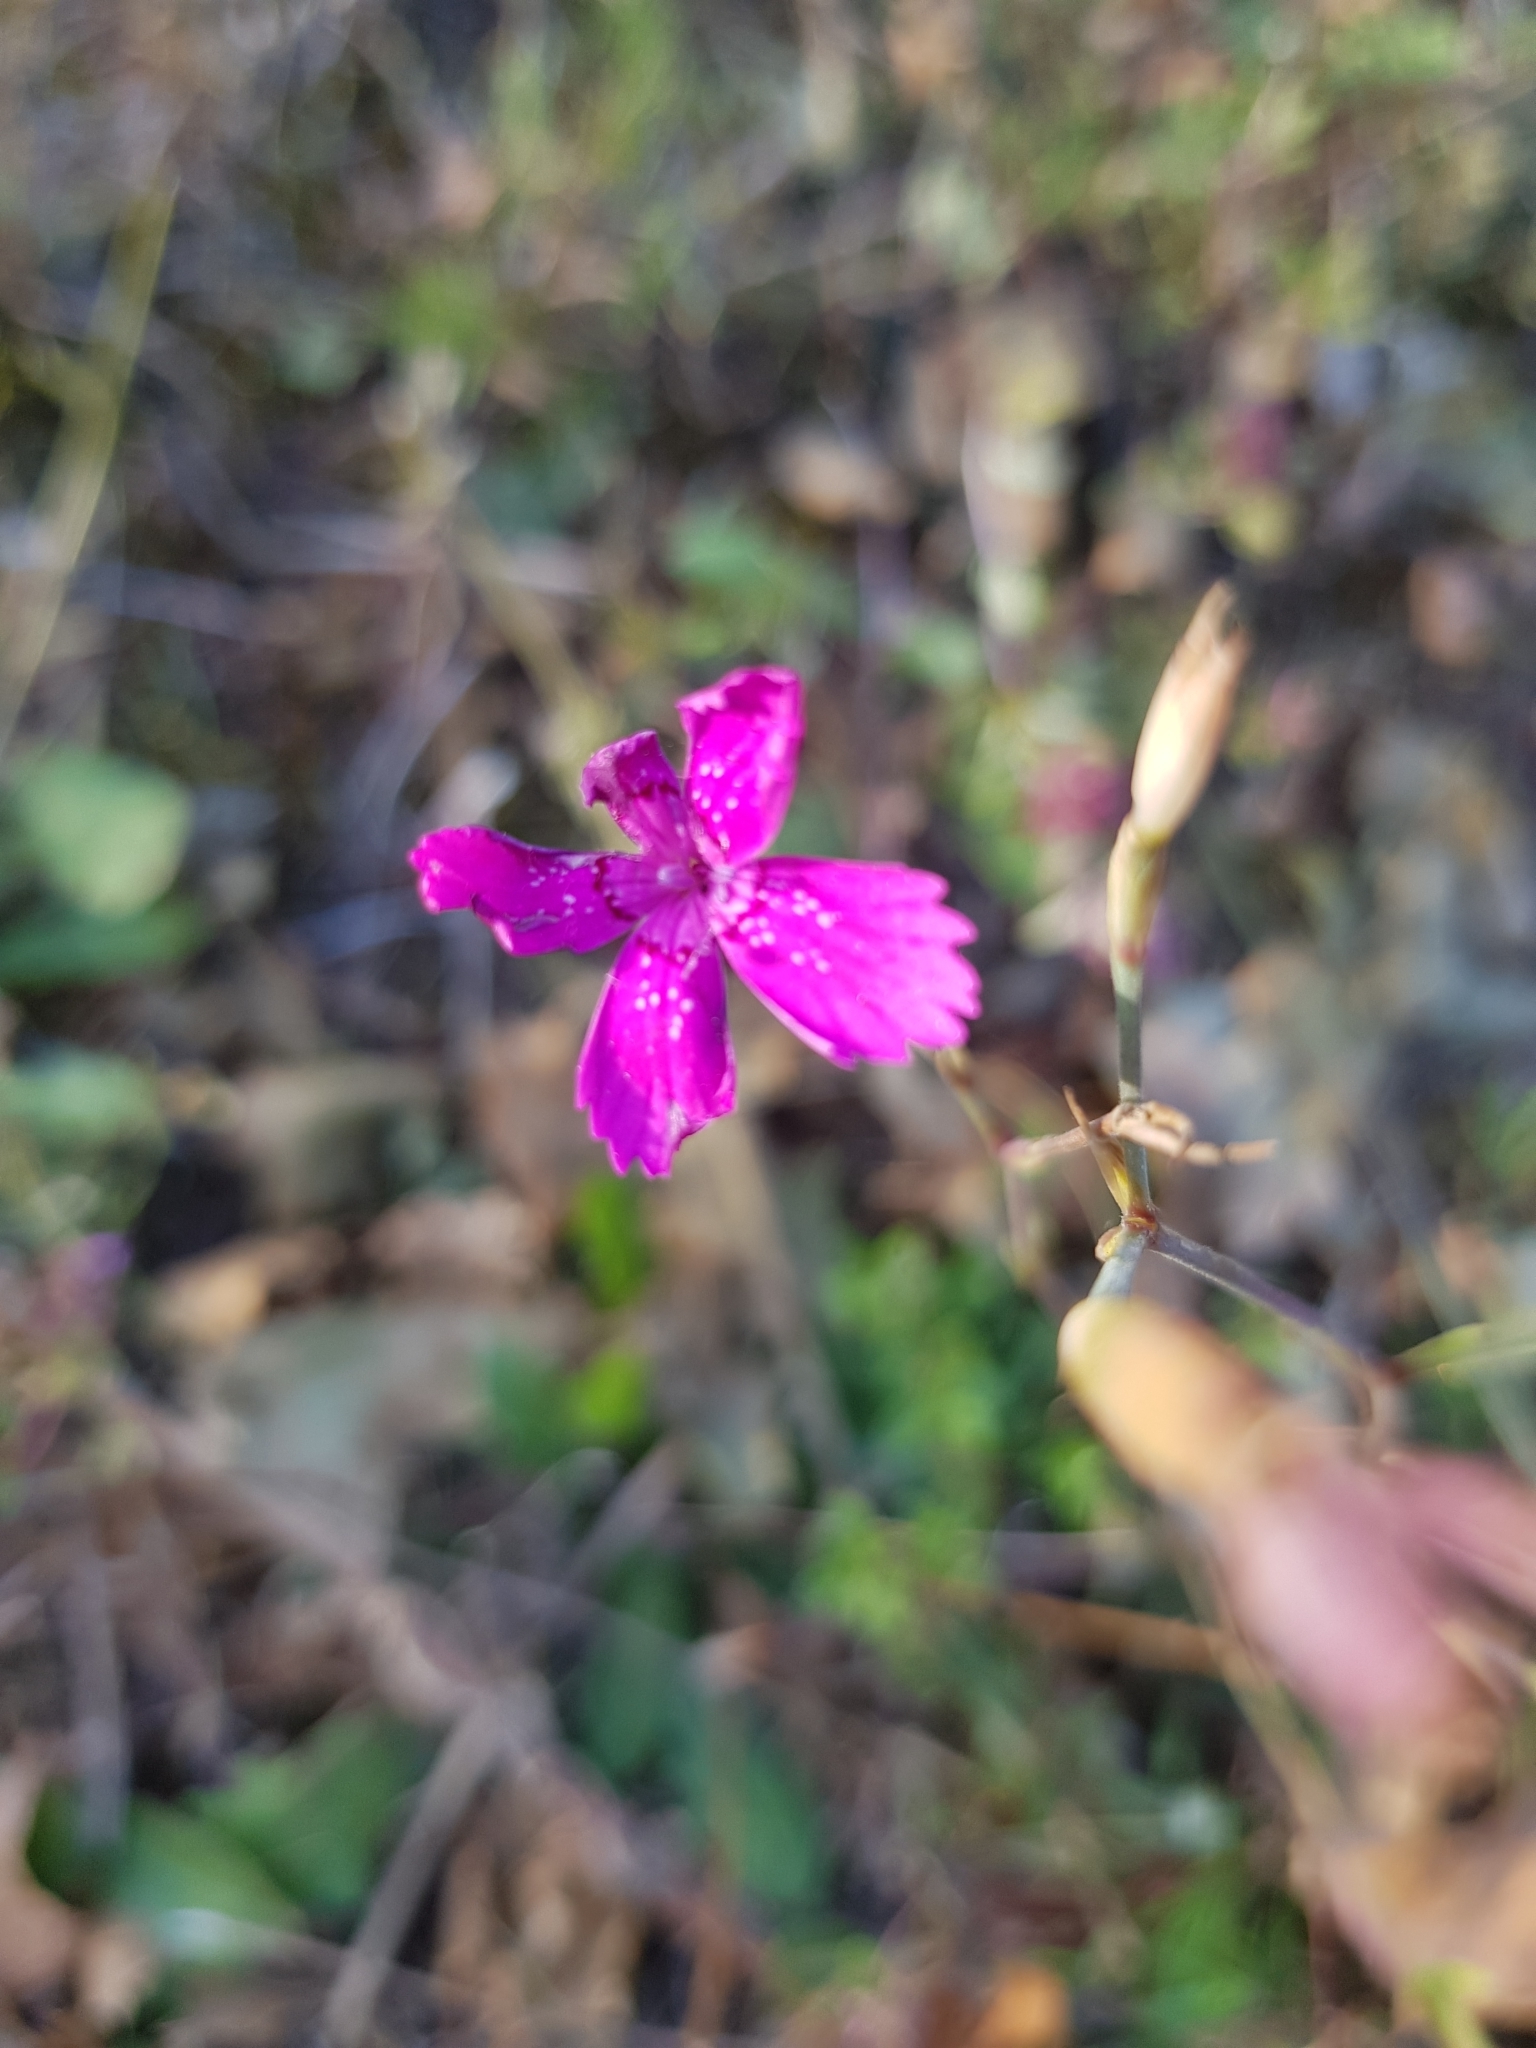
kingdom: Plantae
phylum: Tracheophyta
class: Magnoliopsida
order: Caryophyllales
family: Caryophyllaceae
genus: Dianthus
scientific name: Dianthus deltoides
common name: Maiden pink
